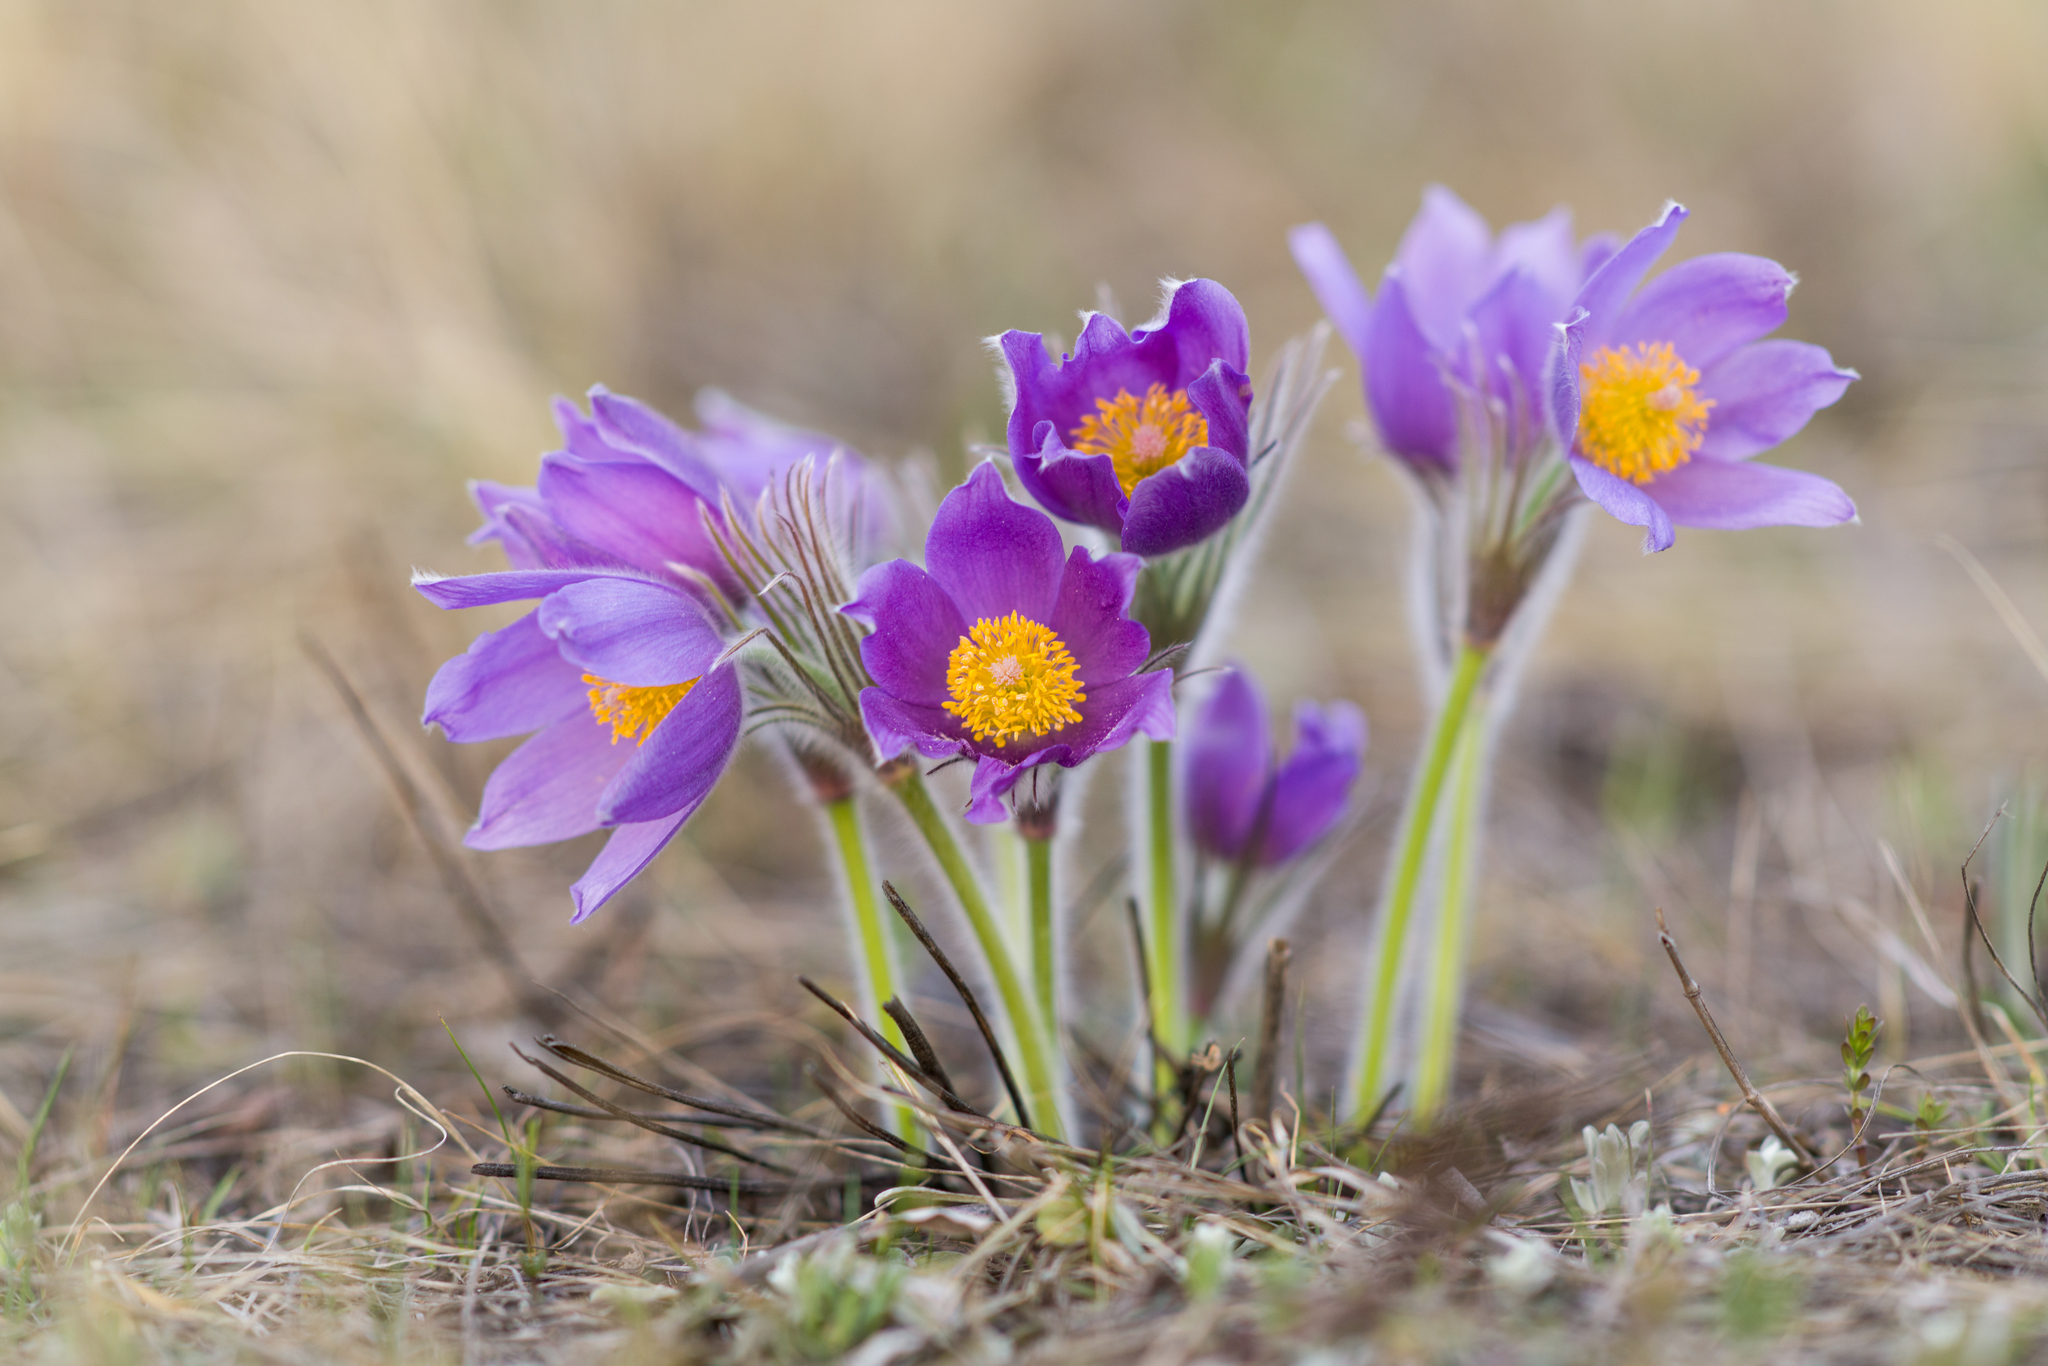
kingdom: Plantae
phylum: Tracheophyta
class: Magnoliopsida
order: Ranunculales
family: Ranunculaceae
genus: Pulsatilla
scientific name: Pulsatilla patens
